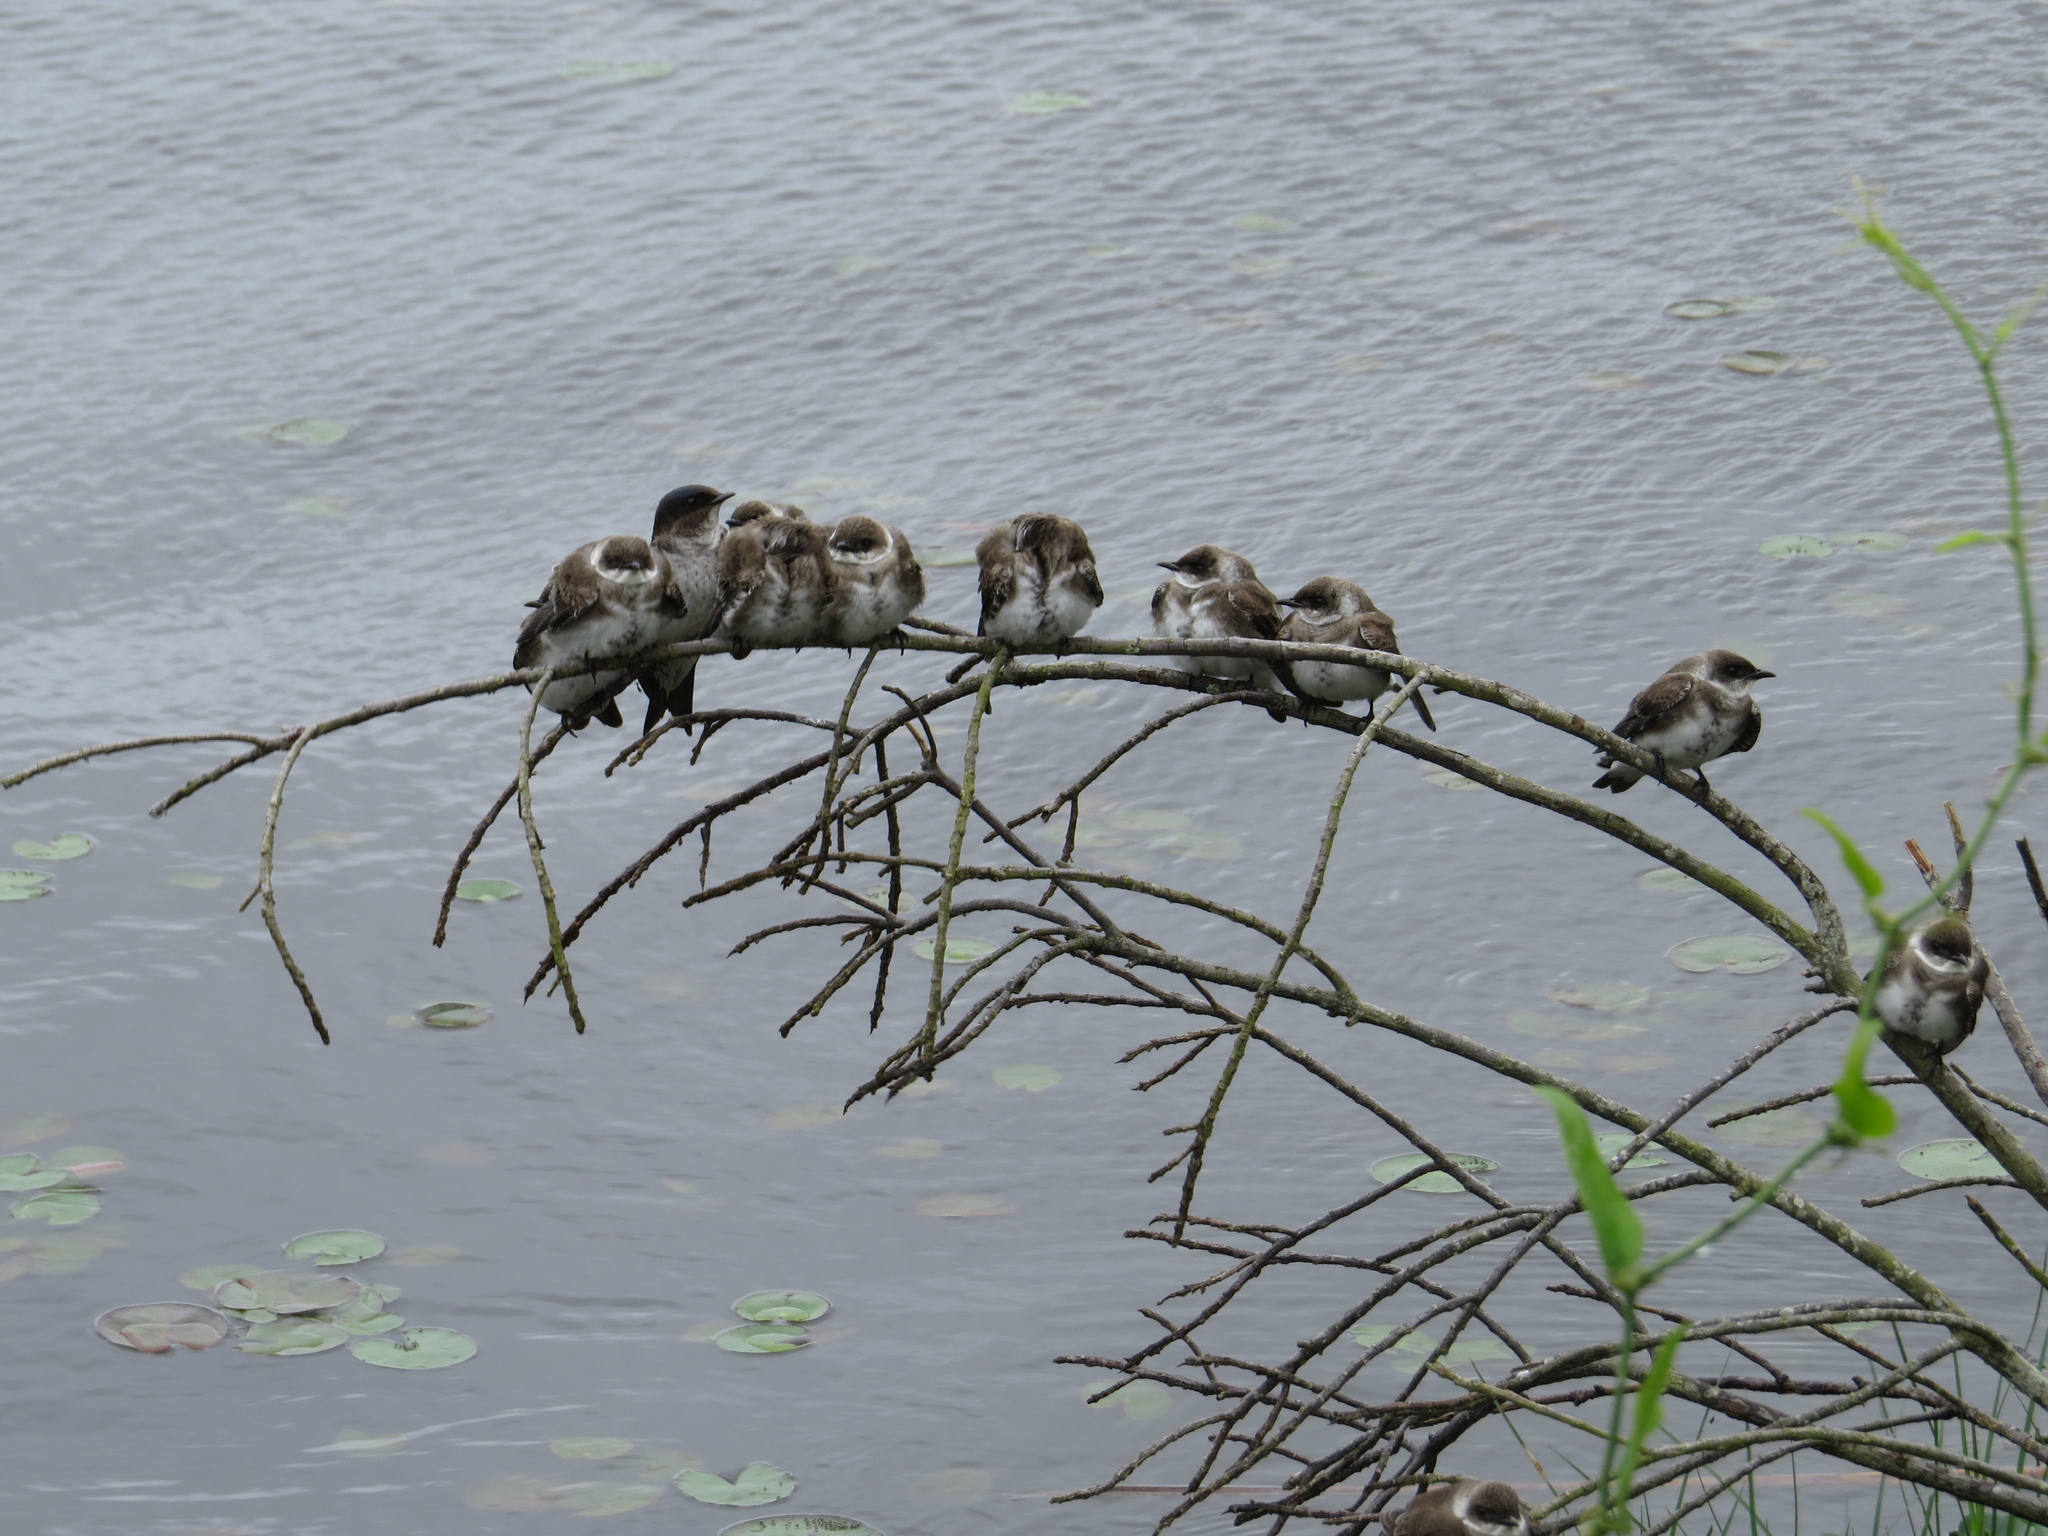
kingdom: Animalia
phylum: Chordata
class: Aves
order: Passeriformes
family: Hirundinidae
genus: Progne
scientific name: Progne tapera
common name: Brown-chested martin
